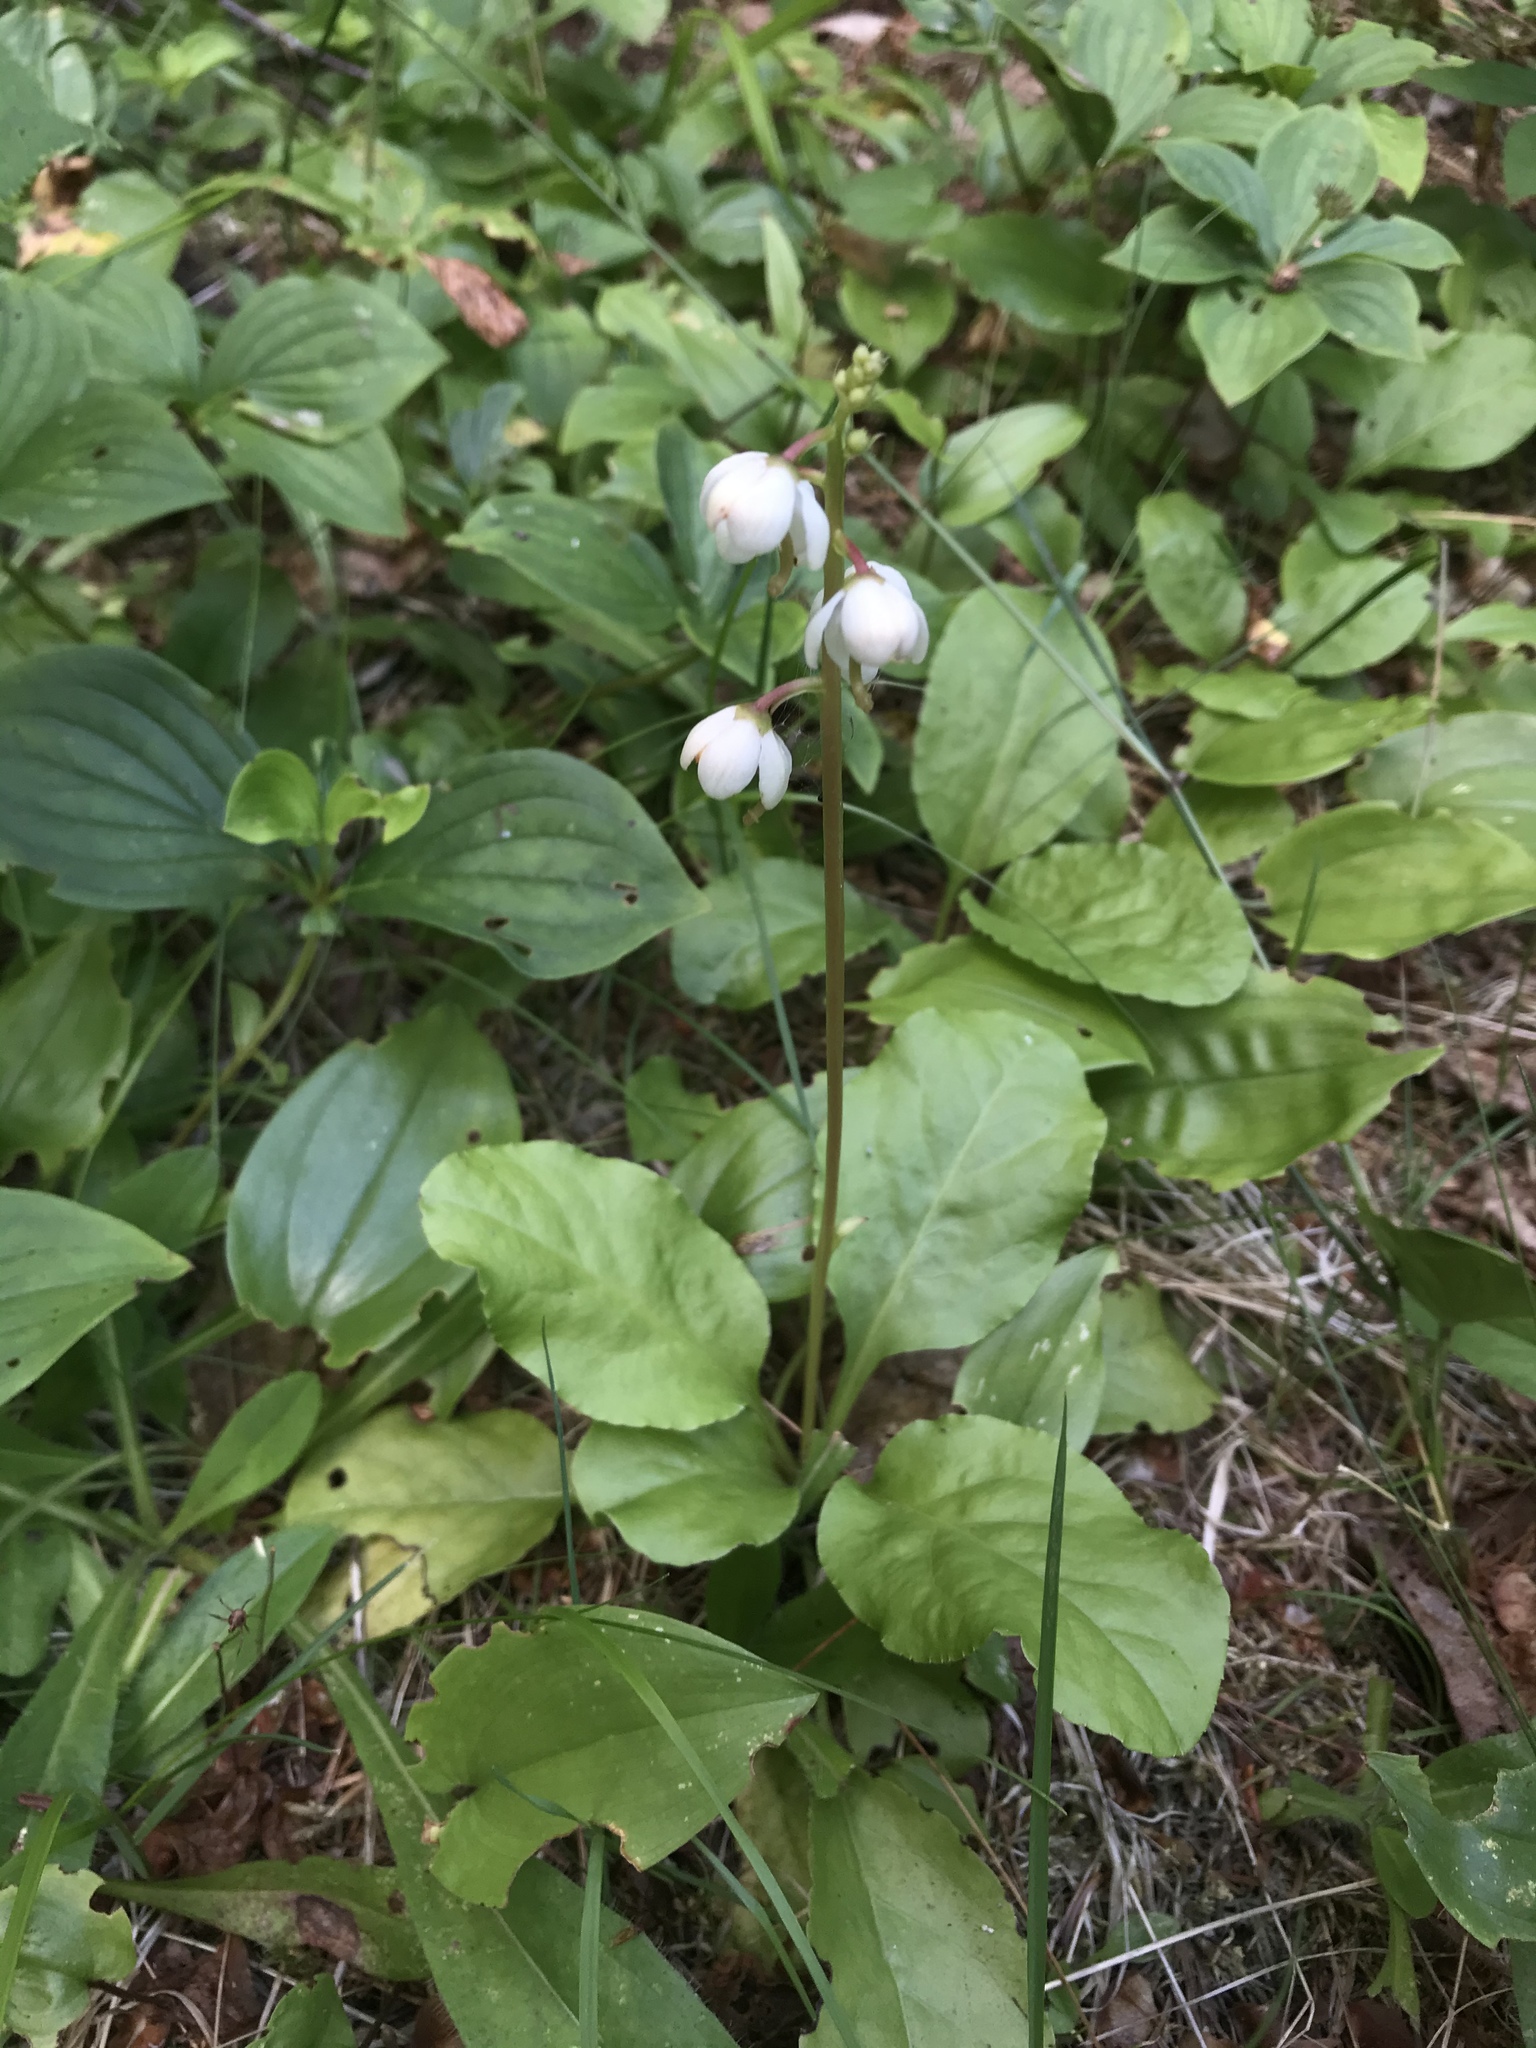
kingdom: Plantae
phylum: Tracheophyta
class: Magnoliopsida
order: Ericales
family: Ericaceae
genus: Pyrola
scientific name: Pyrola elliptica
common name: Shinleaf
